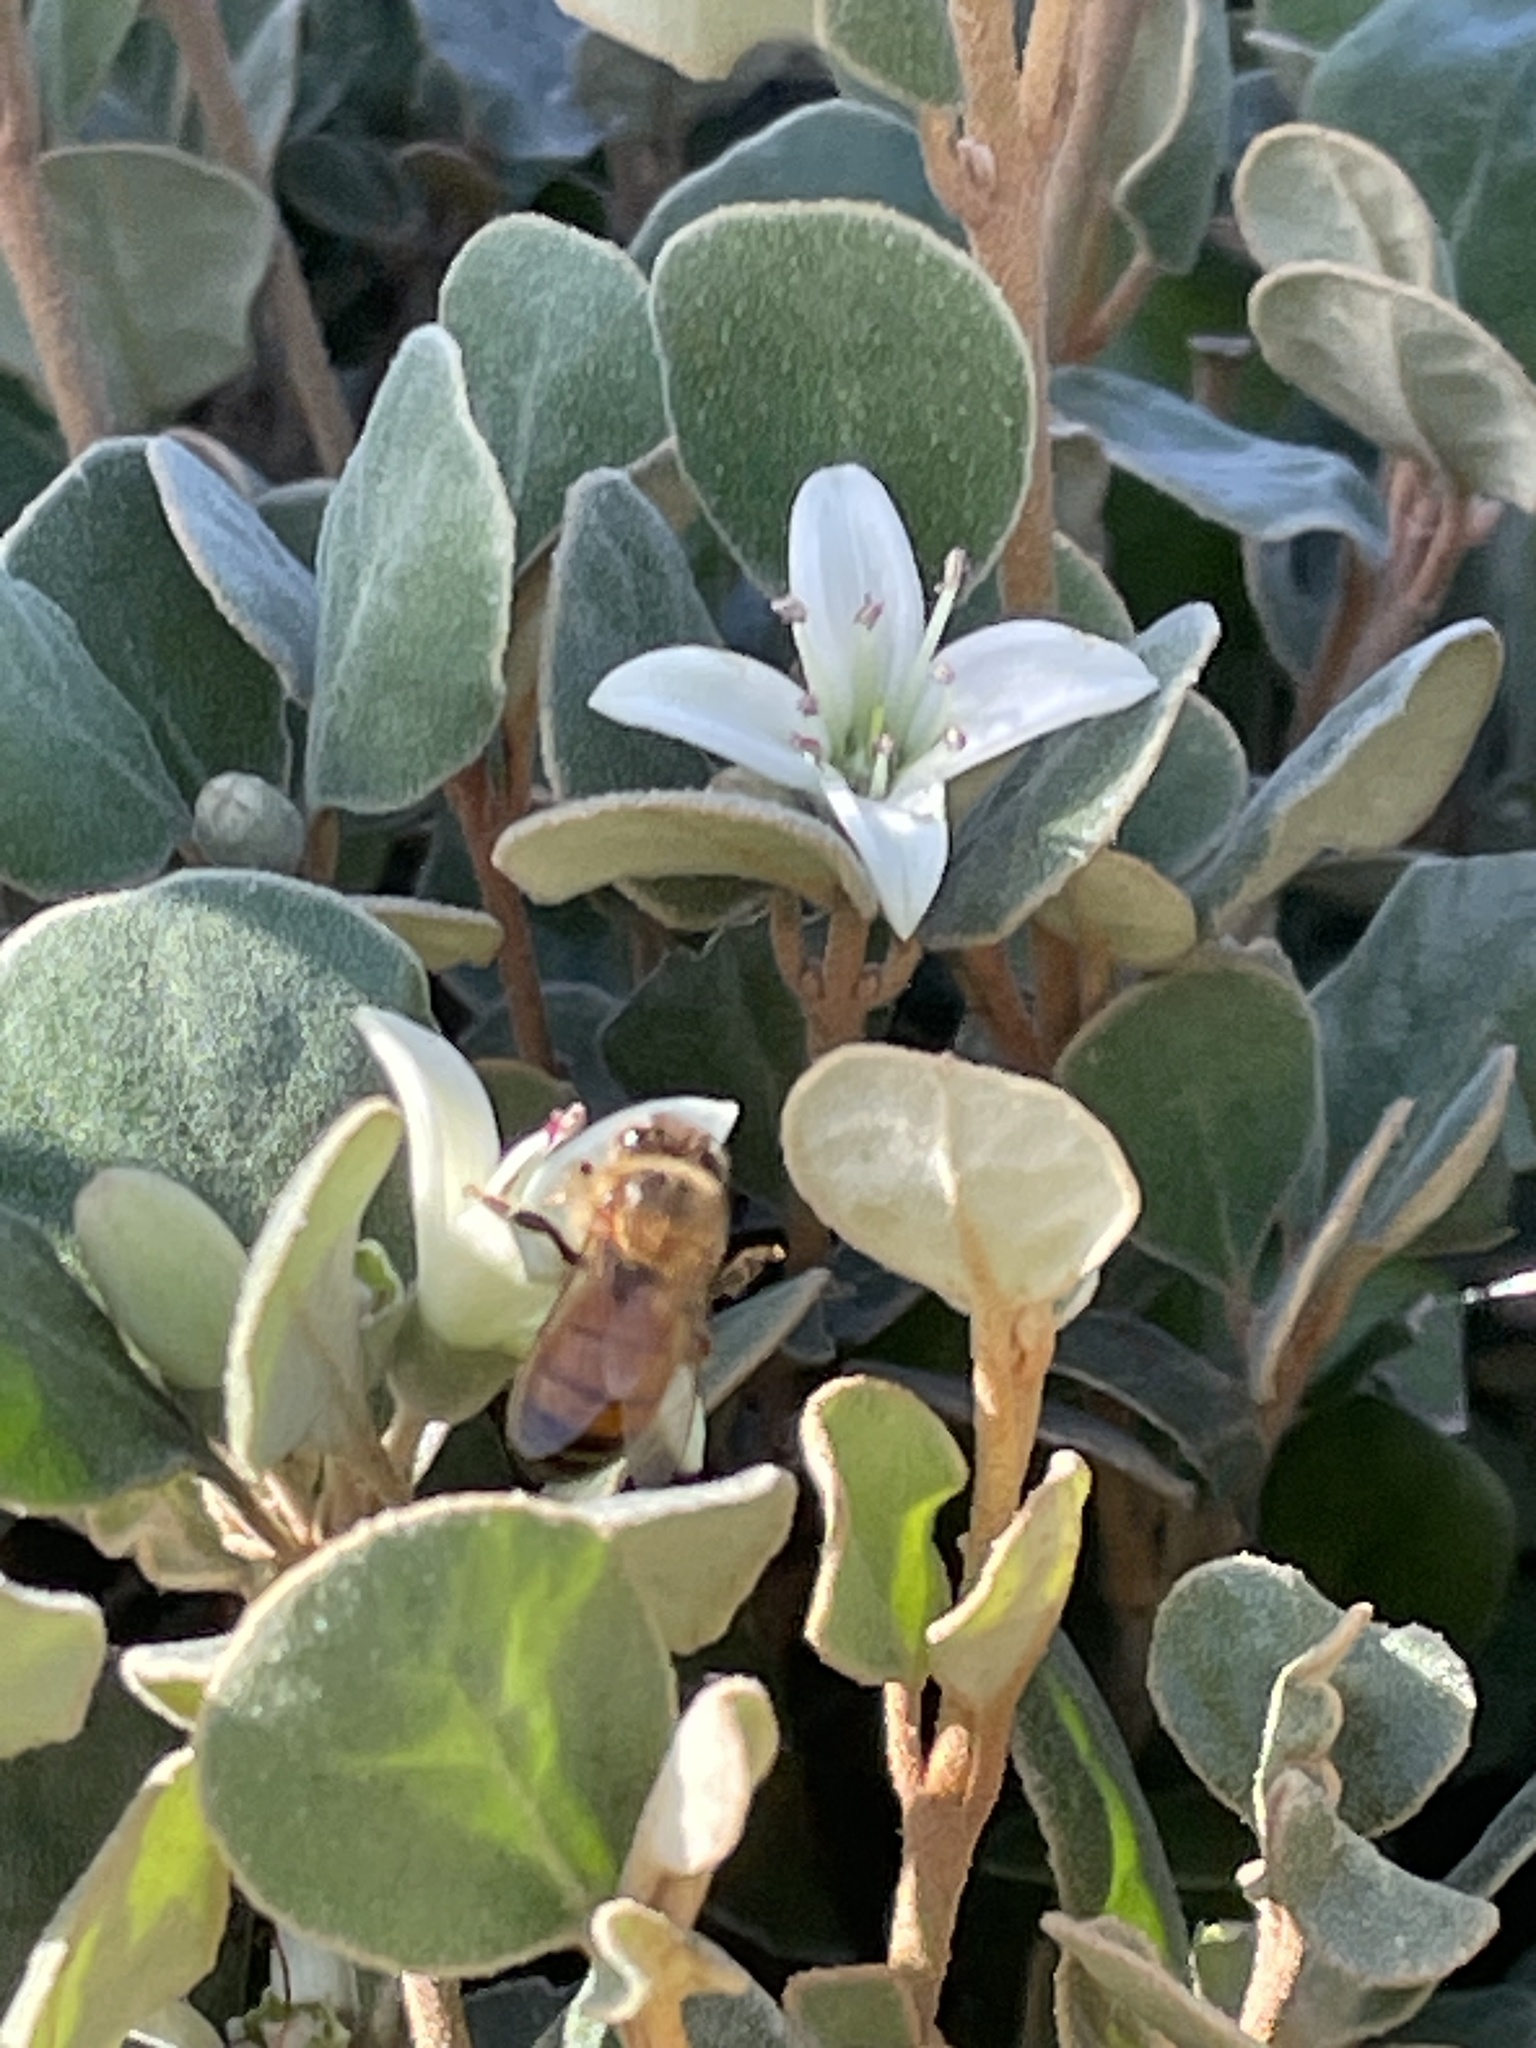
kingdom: Animalia
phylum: Arthropoda
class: Insecta
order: Hymenoptera
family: Apidae
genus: Apis
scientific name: Apis mellifera
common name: Honey bee
